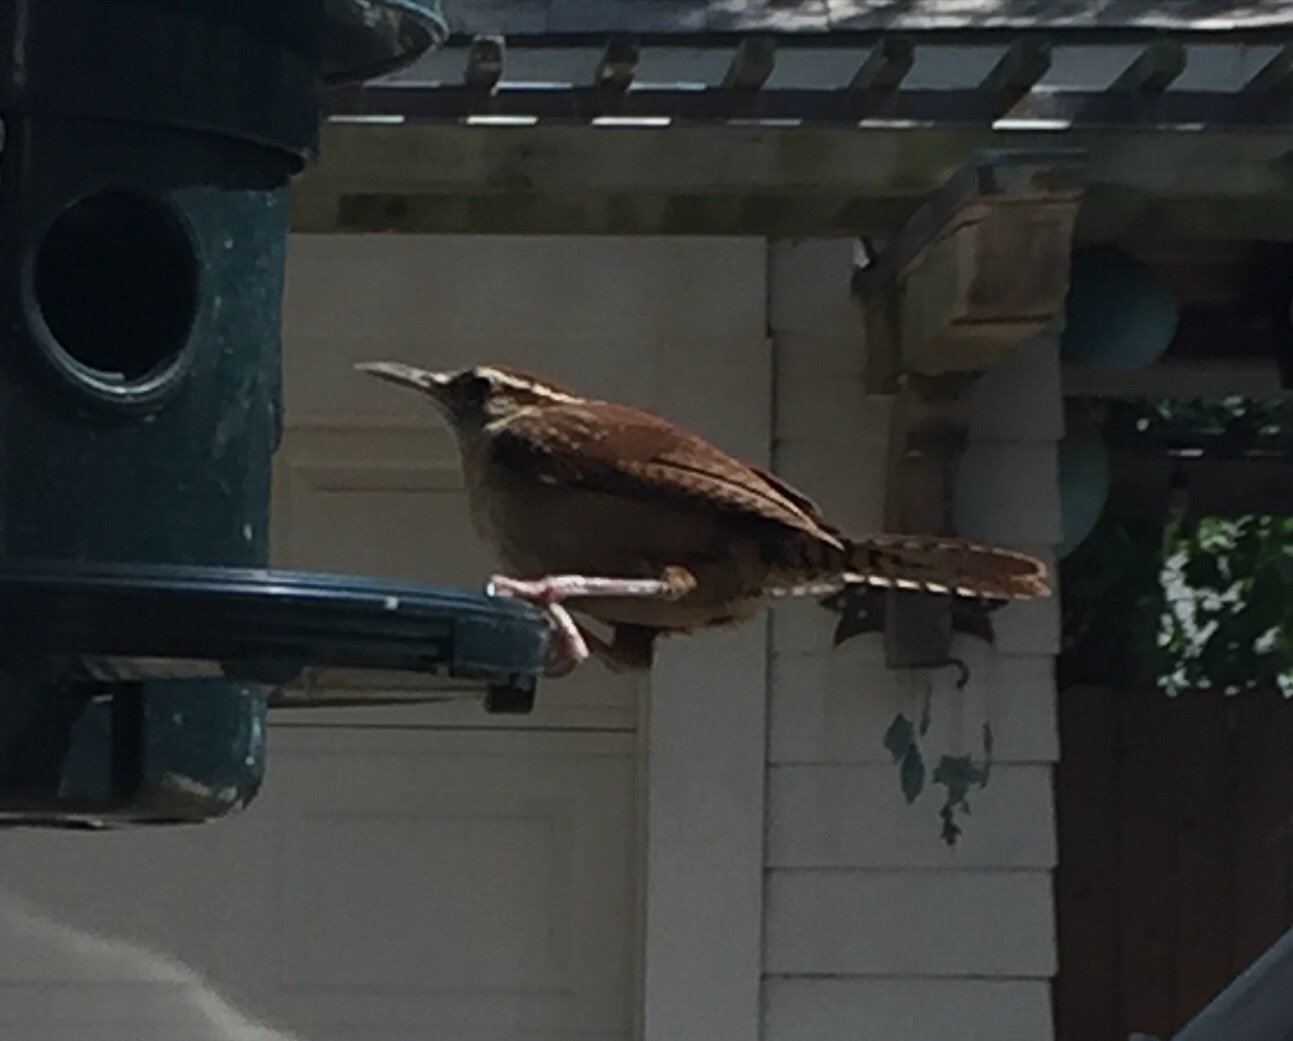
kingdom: Animalia
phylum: Chordata
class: Aves
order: Passeriformes
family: Troglodytidae
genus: Thryothorus
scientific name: Thryothorus ludovicianus
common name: Carolina wren
